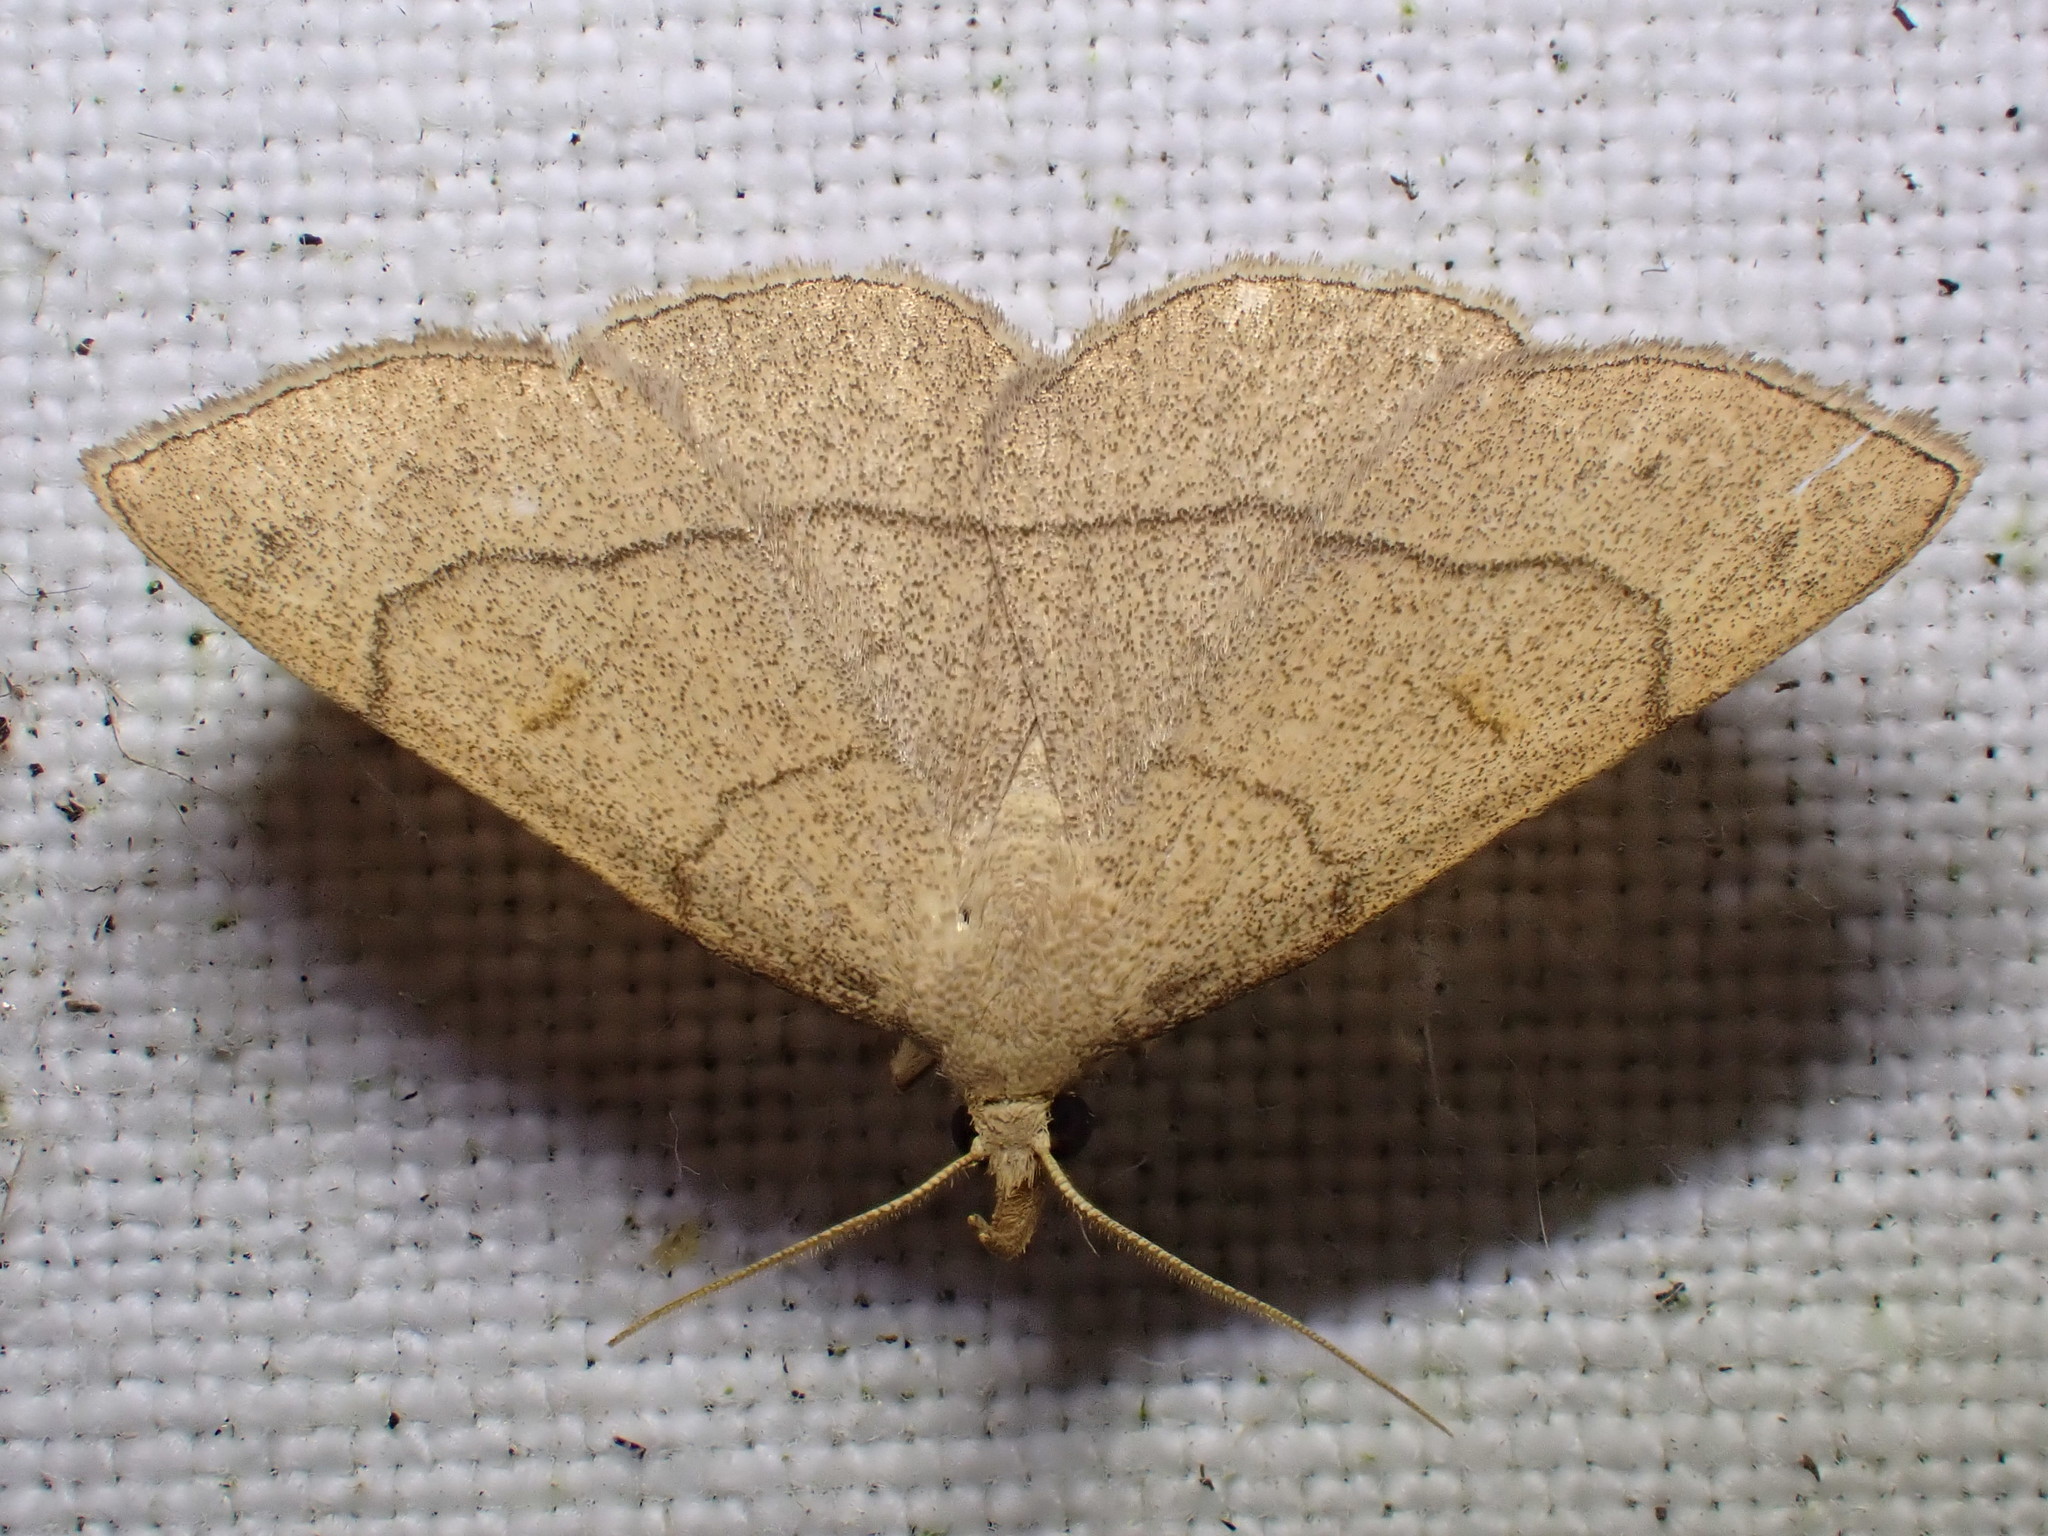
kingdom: Animalia
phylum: Arthropoda
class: Insecta
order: Lepidoptera
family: Erebidae
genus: Paracolax
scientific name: Paracolax tristalis
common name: Clay fan-foot
